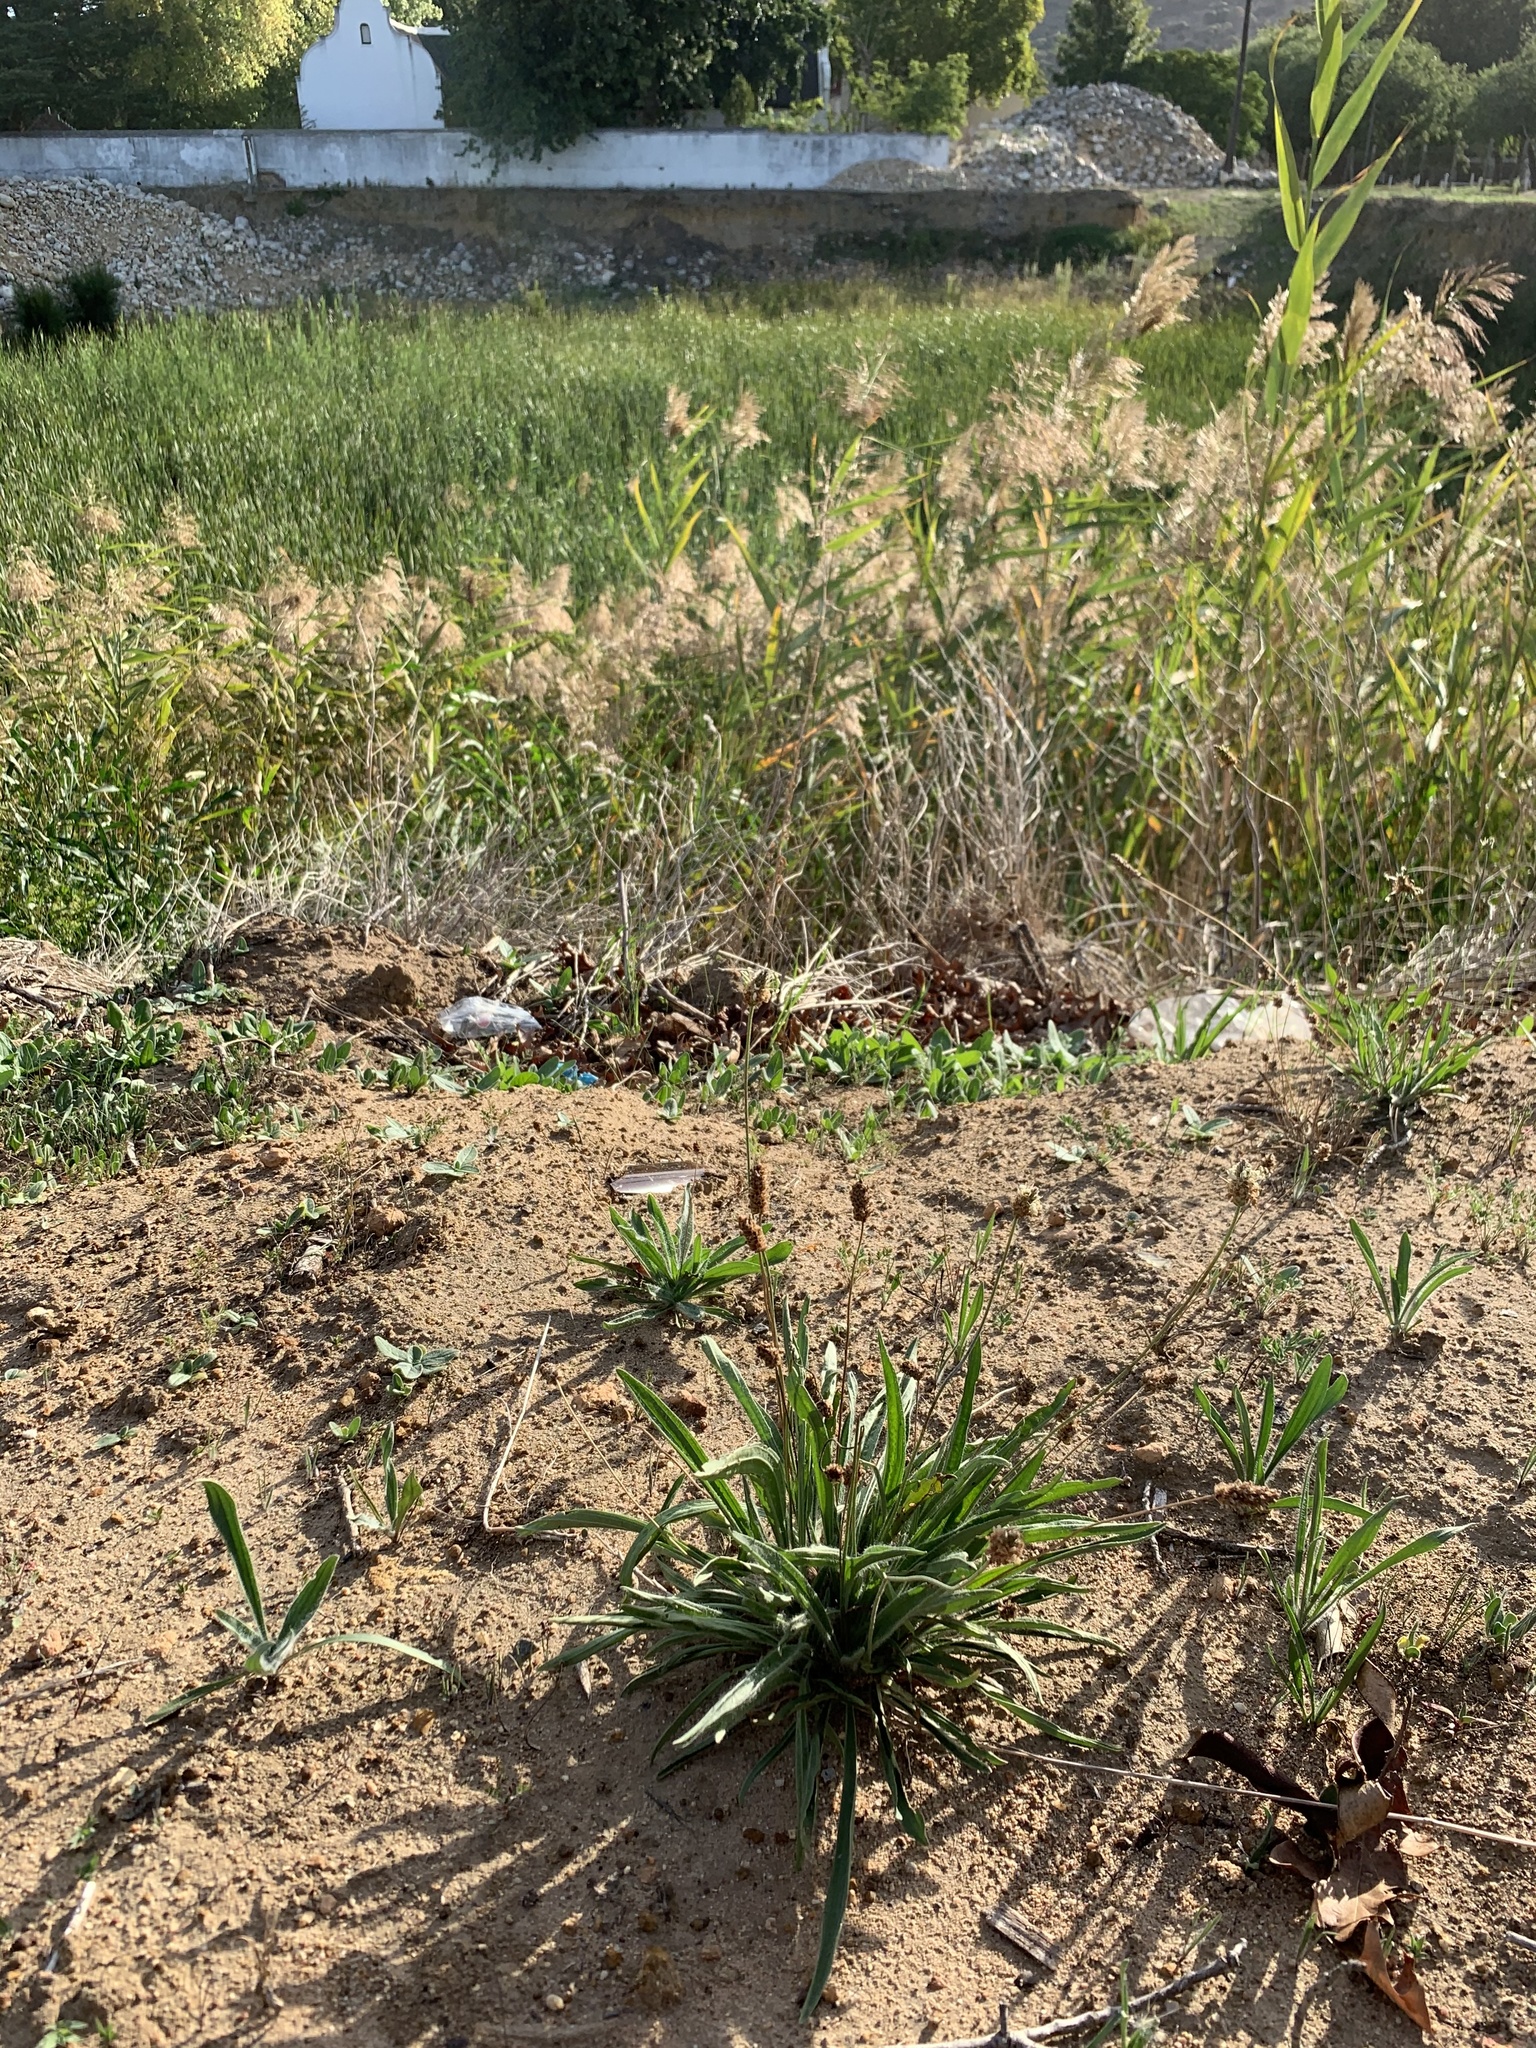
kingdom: Plantae
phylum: Tracheophyta
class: Magnoliopsida
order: Lamiales
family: Plantaginaceae
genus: Plantago
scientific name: Plantago lanceolata
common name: Ribwort plantain
